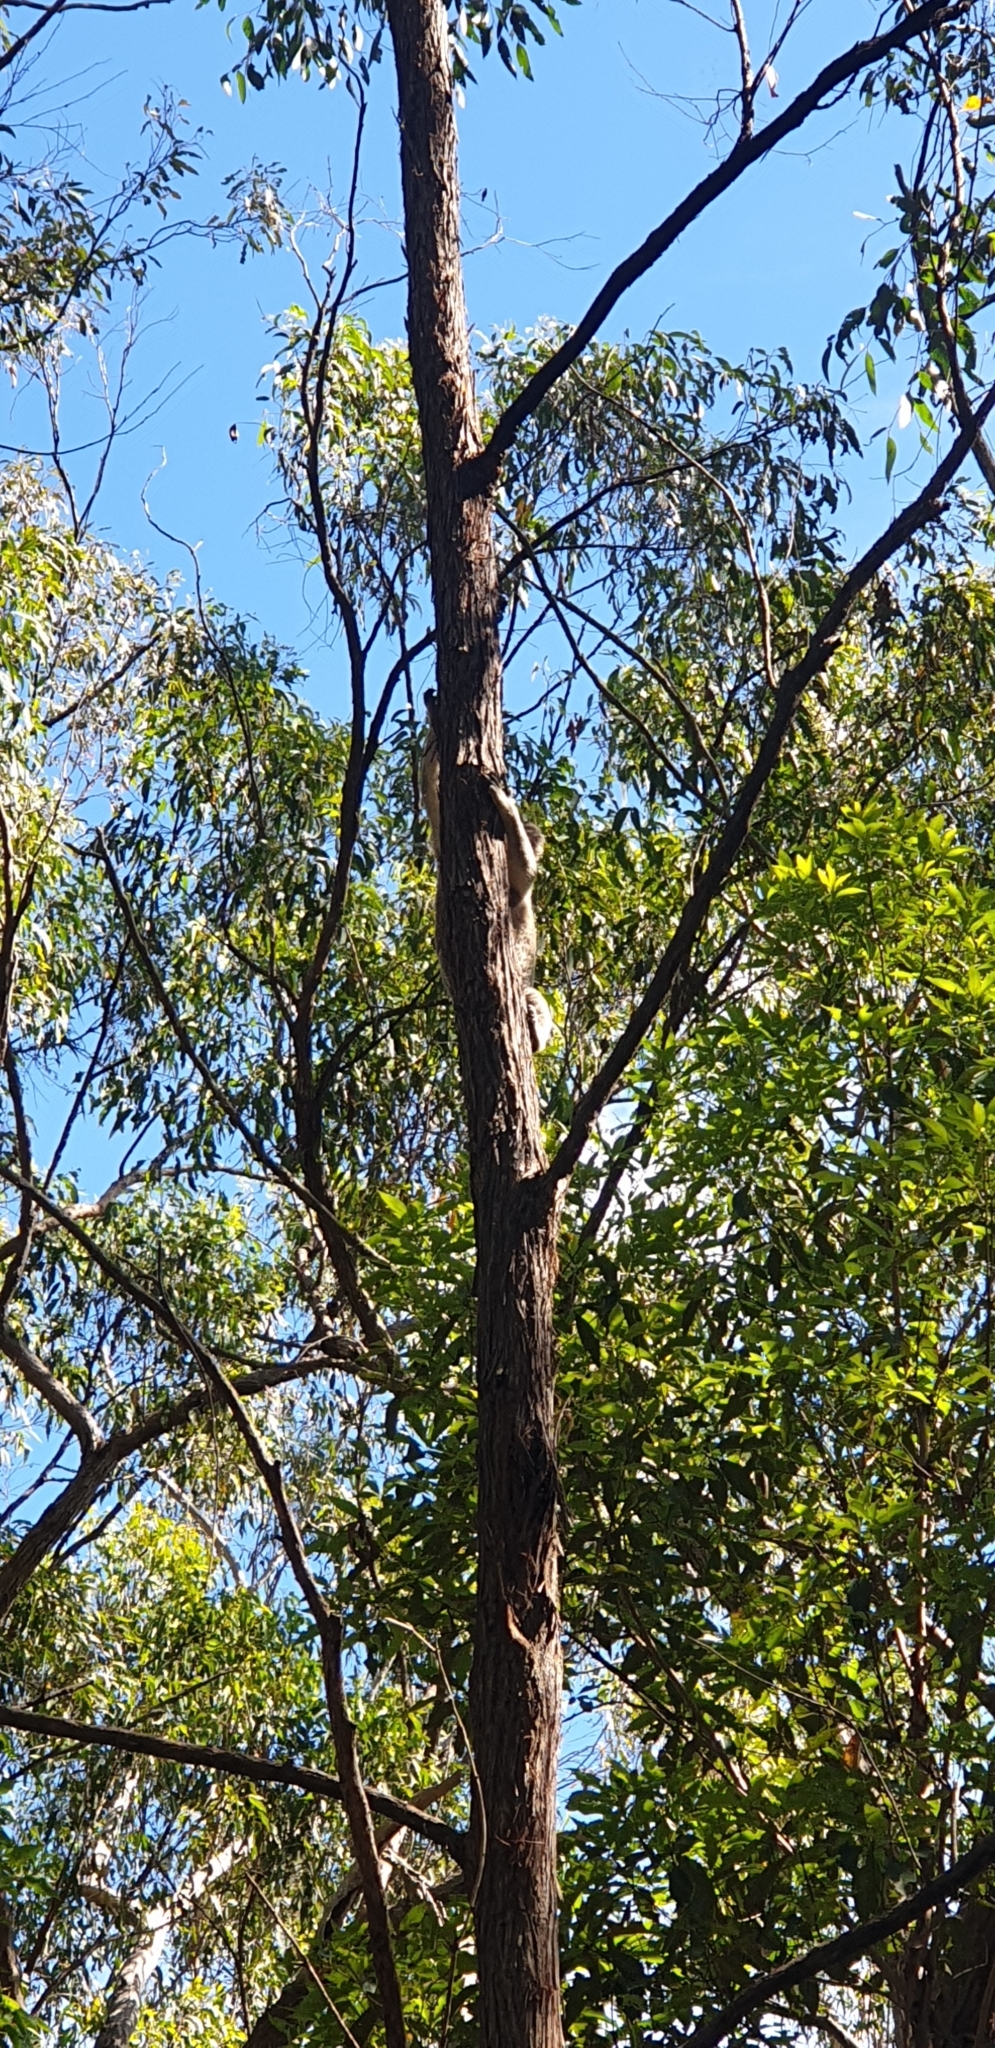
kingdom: Animalia
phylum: Chordata
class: Mammalia
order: Diprotodontia
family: Phascolarctidae
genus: Phascolarctos
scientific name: Phascolarctos cinereus
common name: Koala
